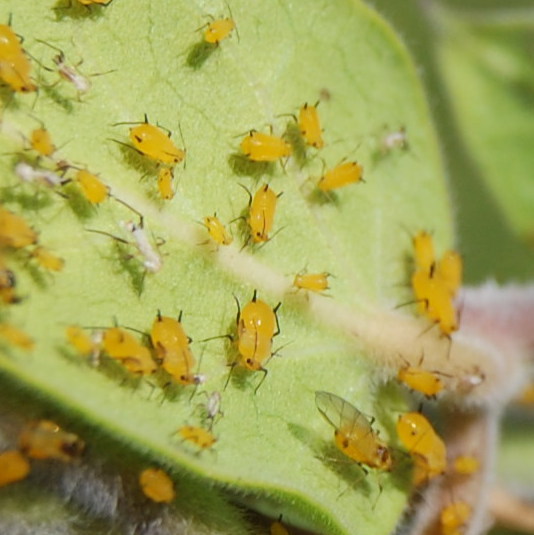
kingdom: Animalia
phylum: Arthropoda
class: Insecta
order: Hemiptera
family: Aphididae
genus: Aphis
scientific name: Aphis nerii
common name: Oleander aphid
